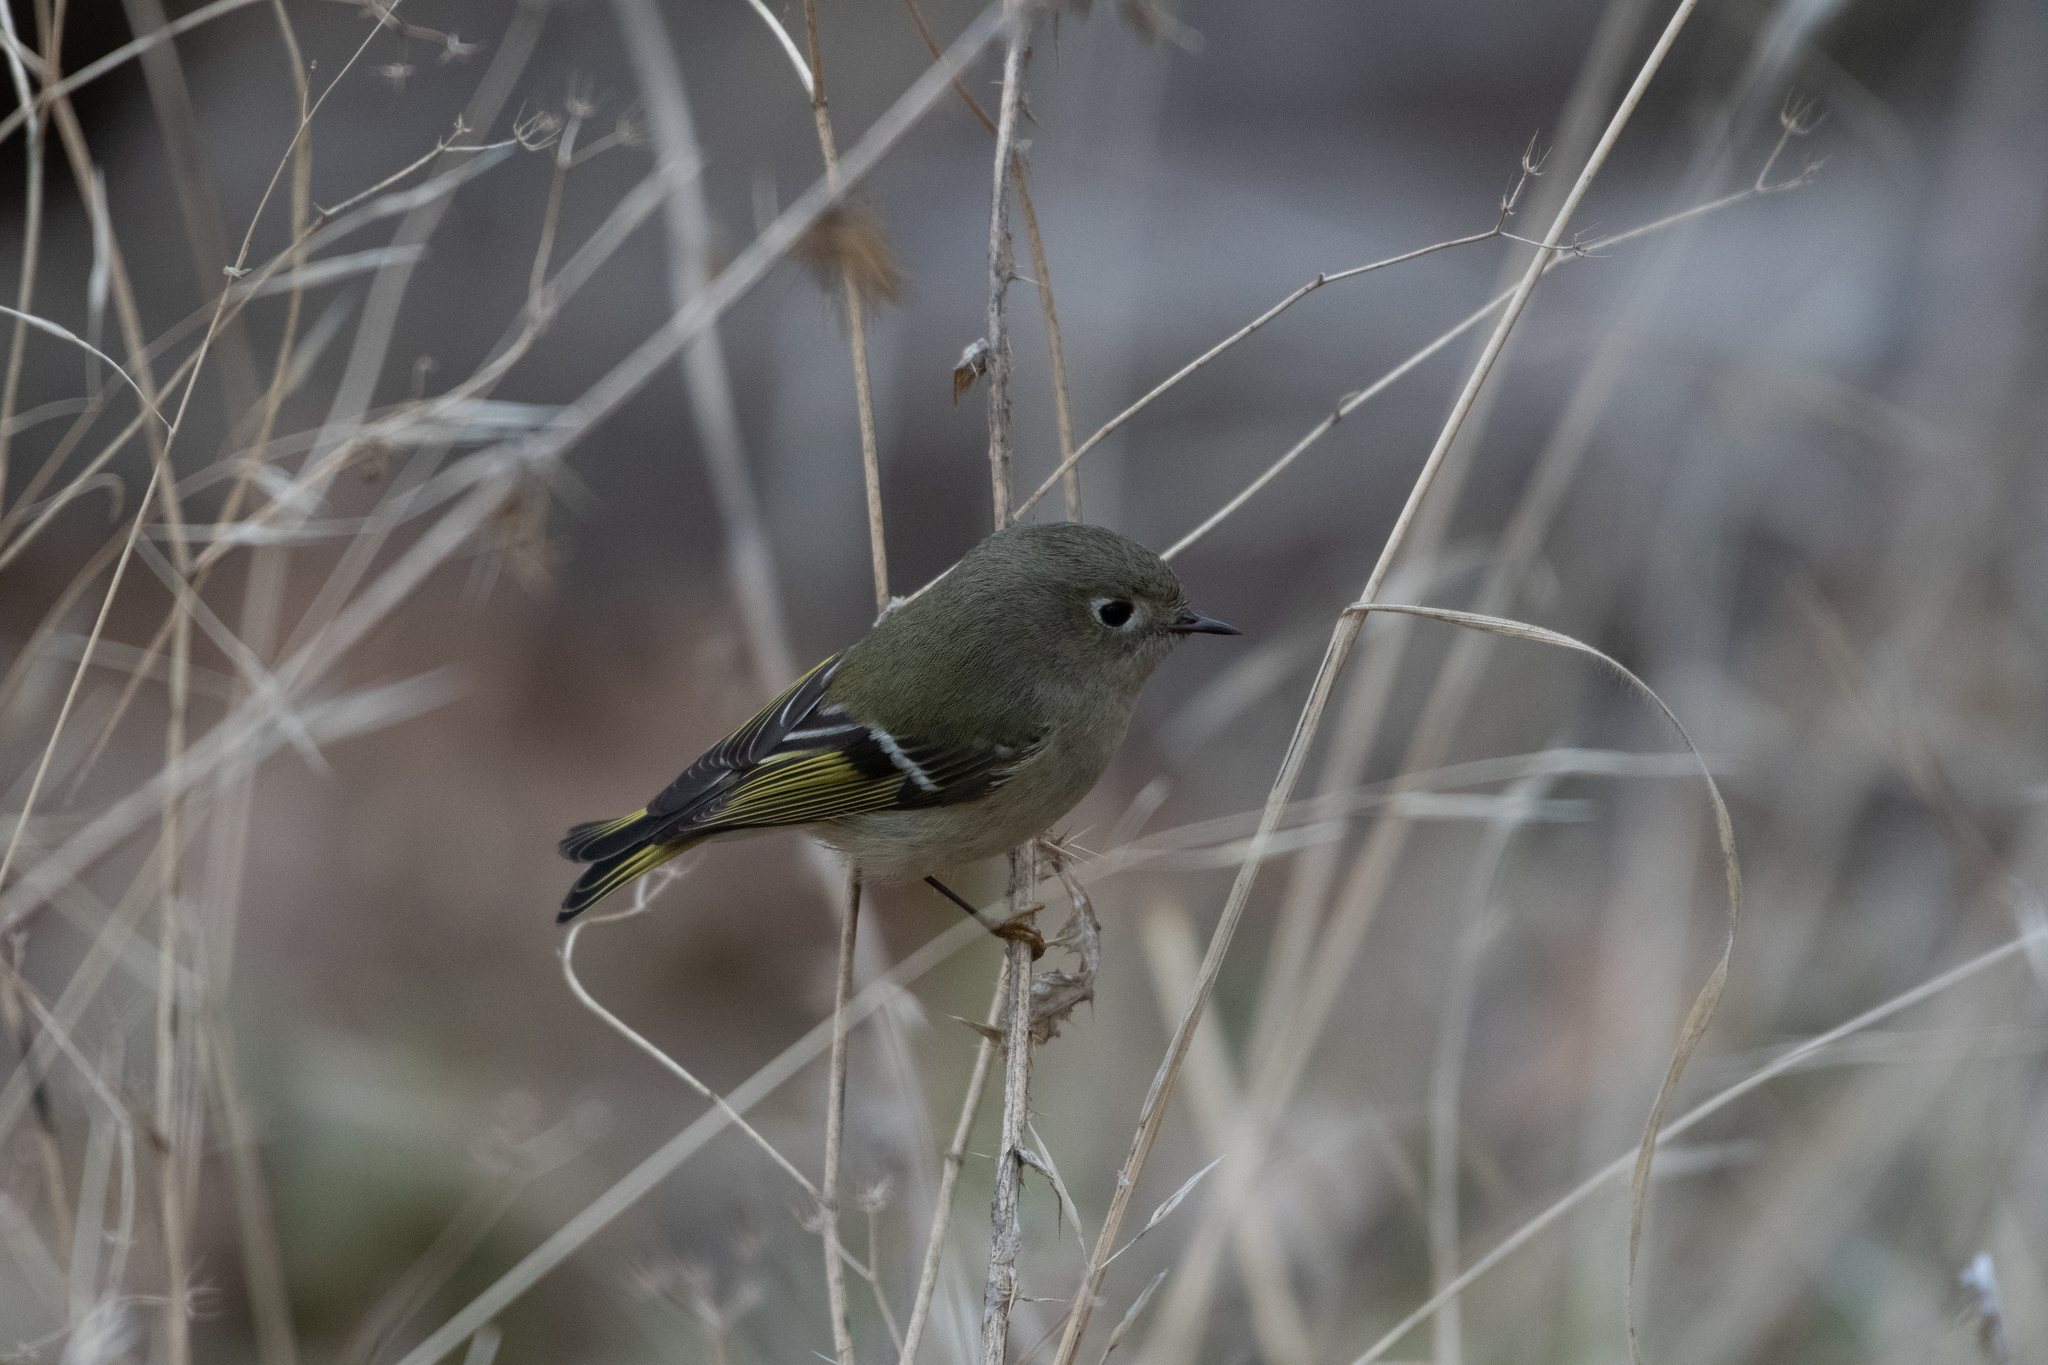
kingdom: Animalia
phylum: Chordata
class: Aves
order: Passeriformes
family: Regulidae
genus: Regulus
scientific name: Regulus calendula
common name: Ruby-crowned kinglet
